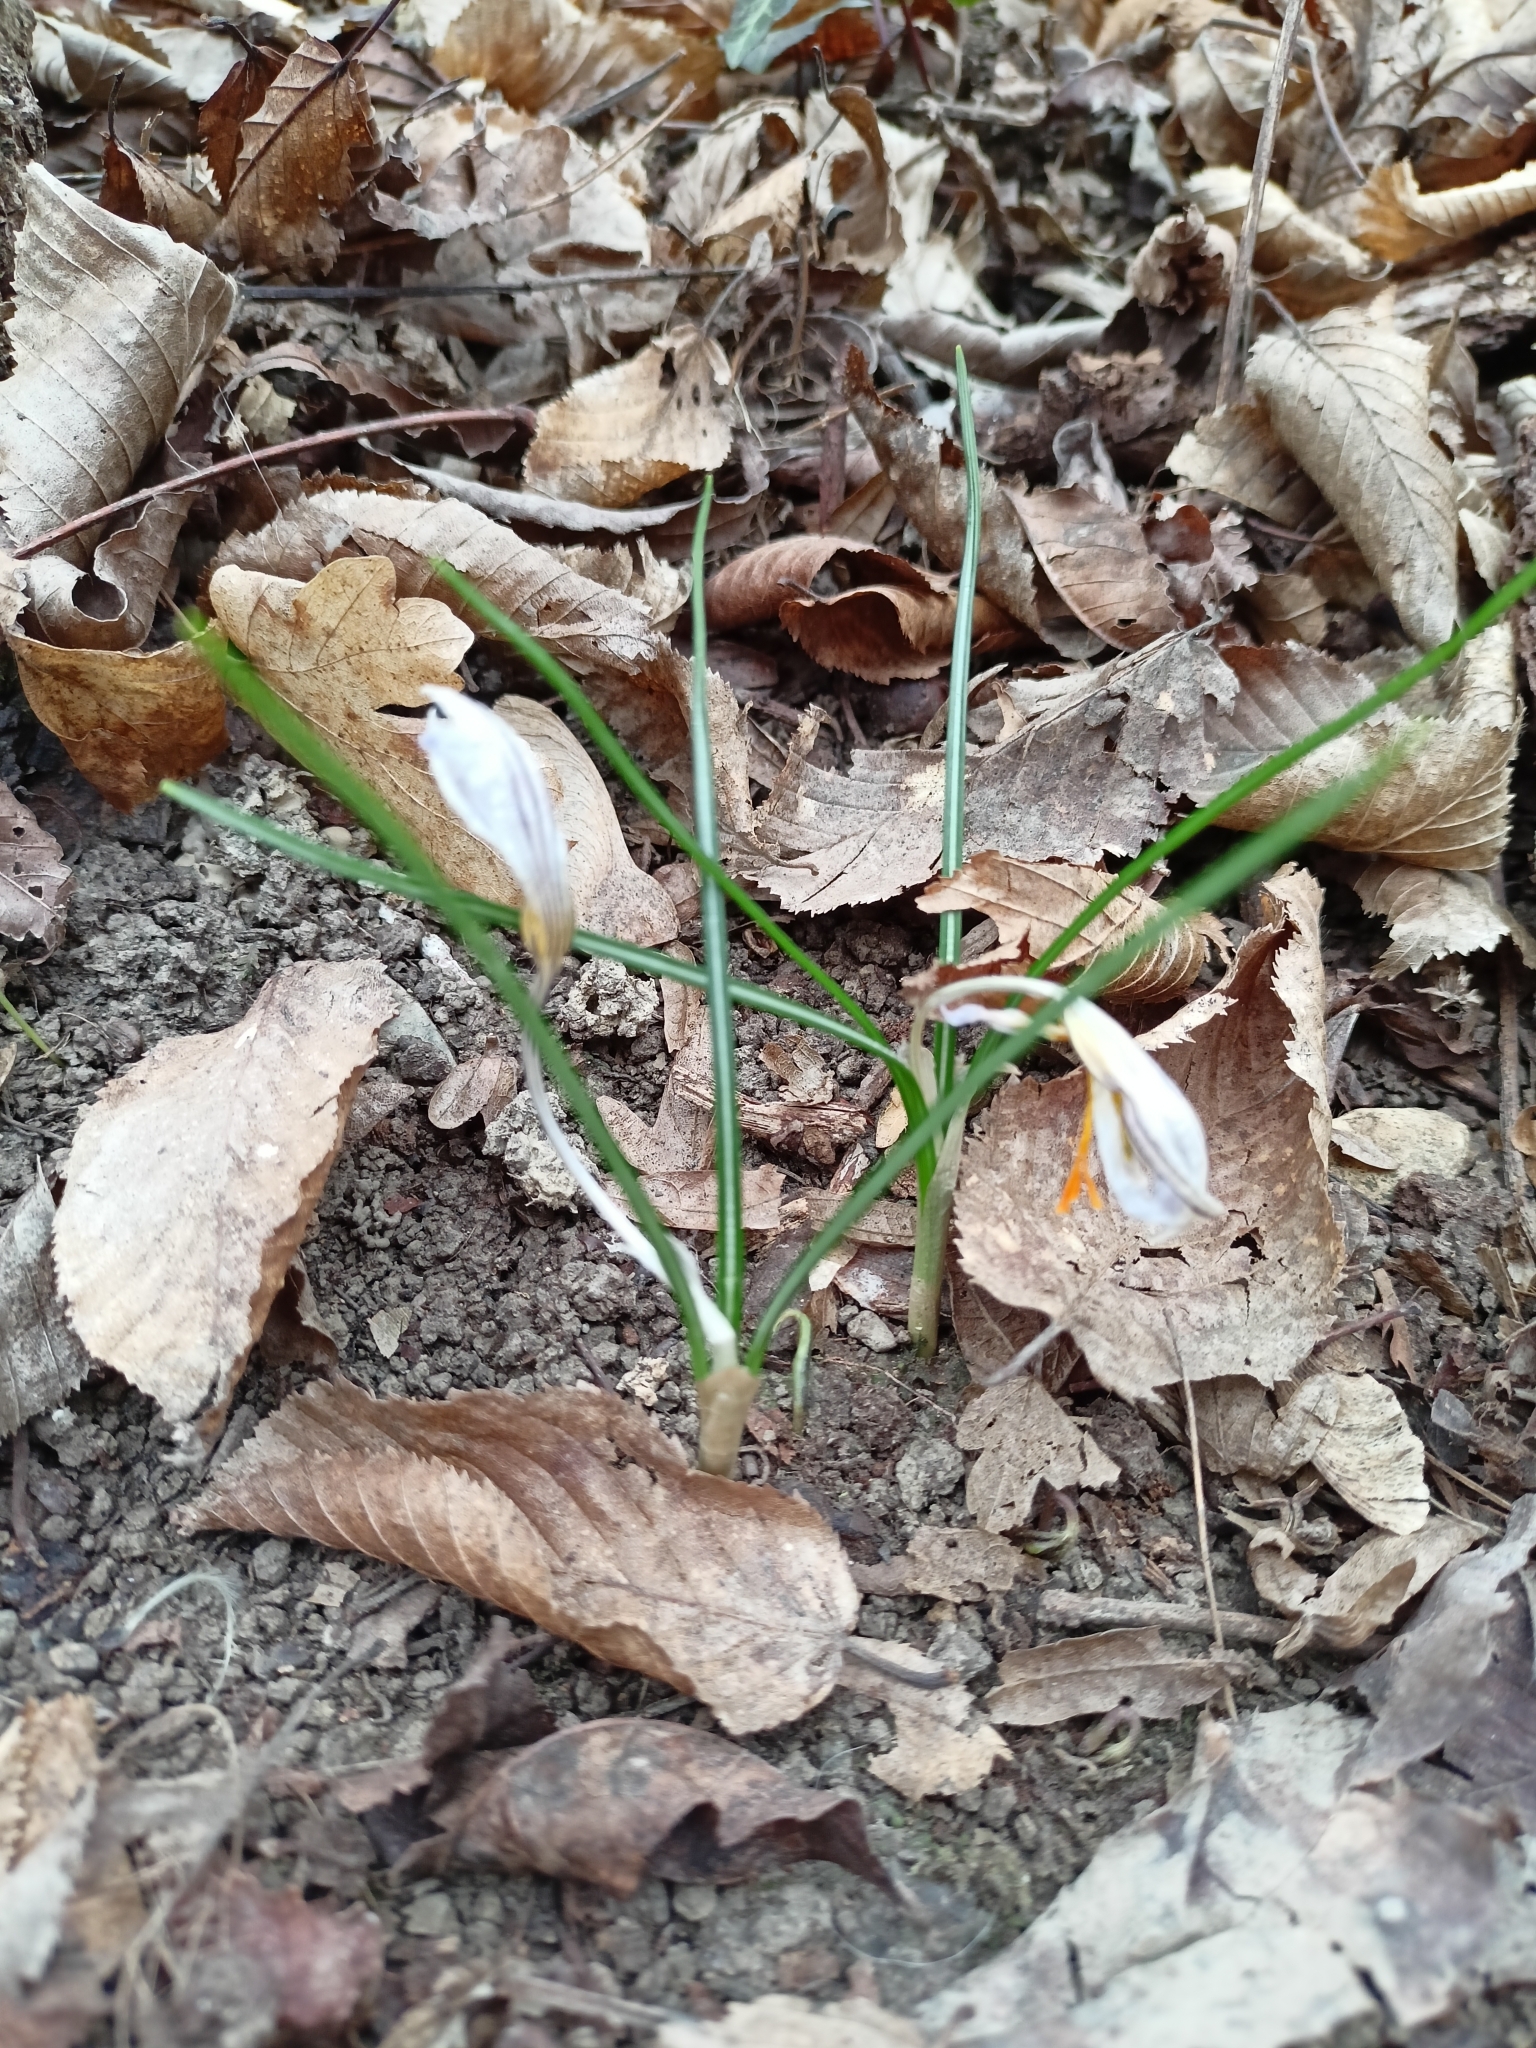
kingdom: Plantae
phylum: Tracheophyta
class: Liliopsida
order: Asparagales
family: Iridaceae
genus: Crocus
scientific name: Crocus biflorus
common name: Silvery crocus
